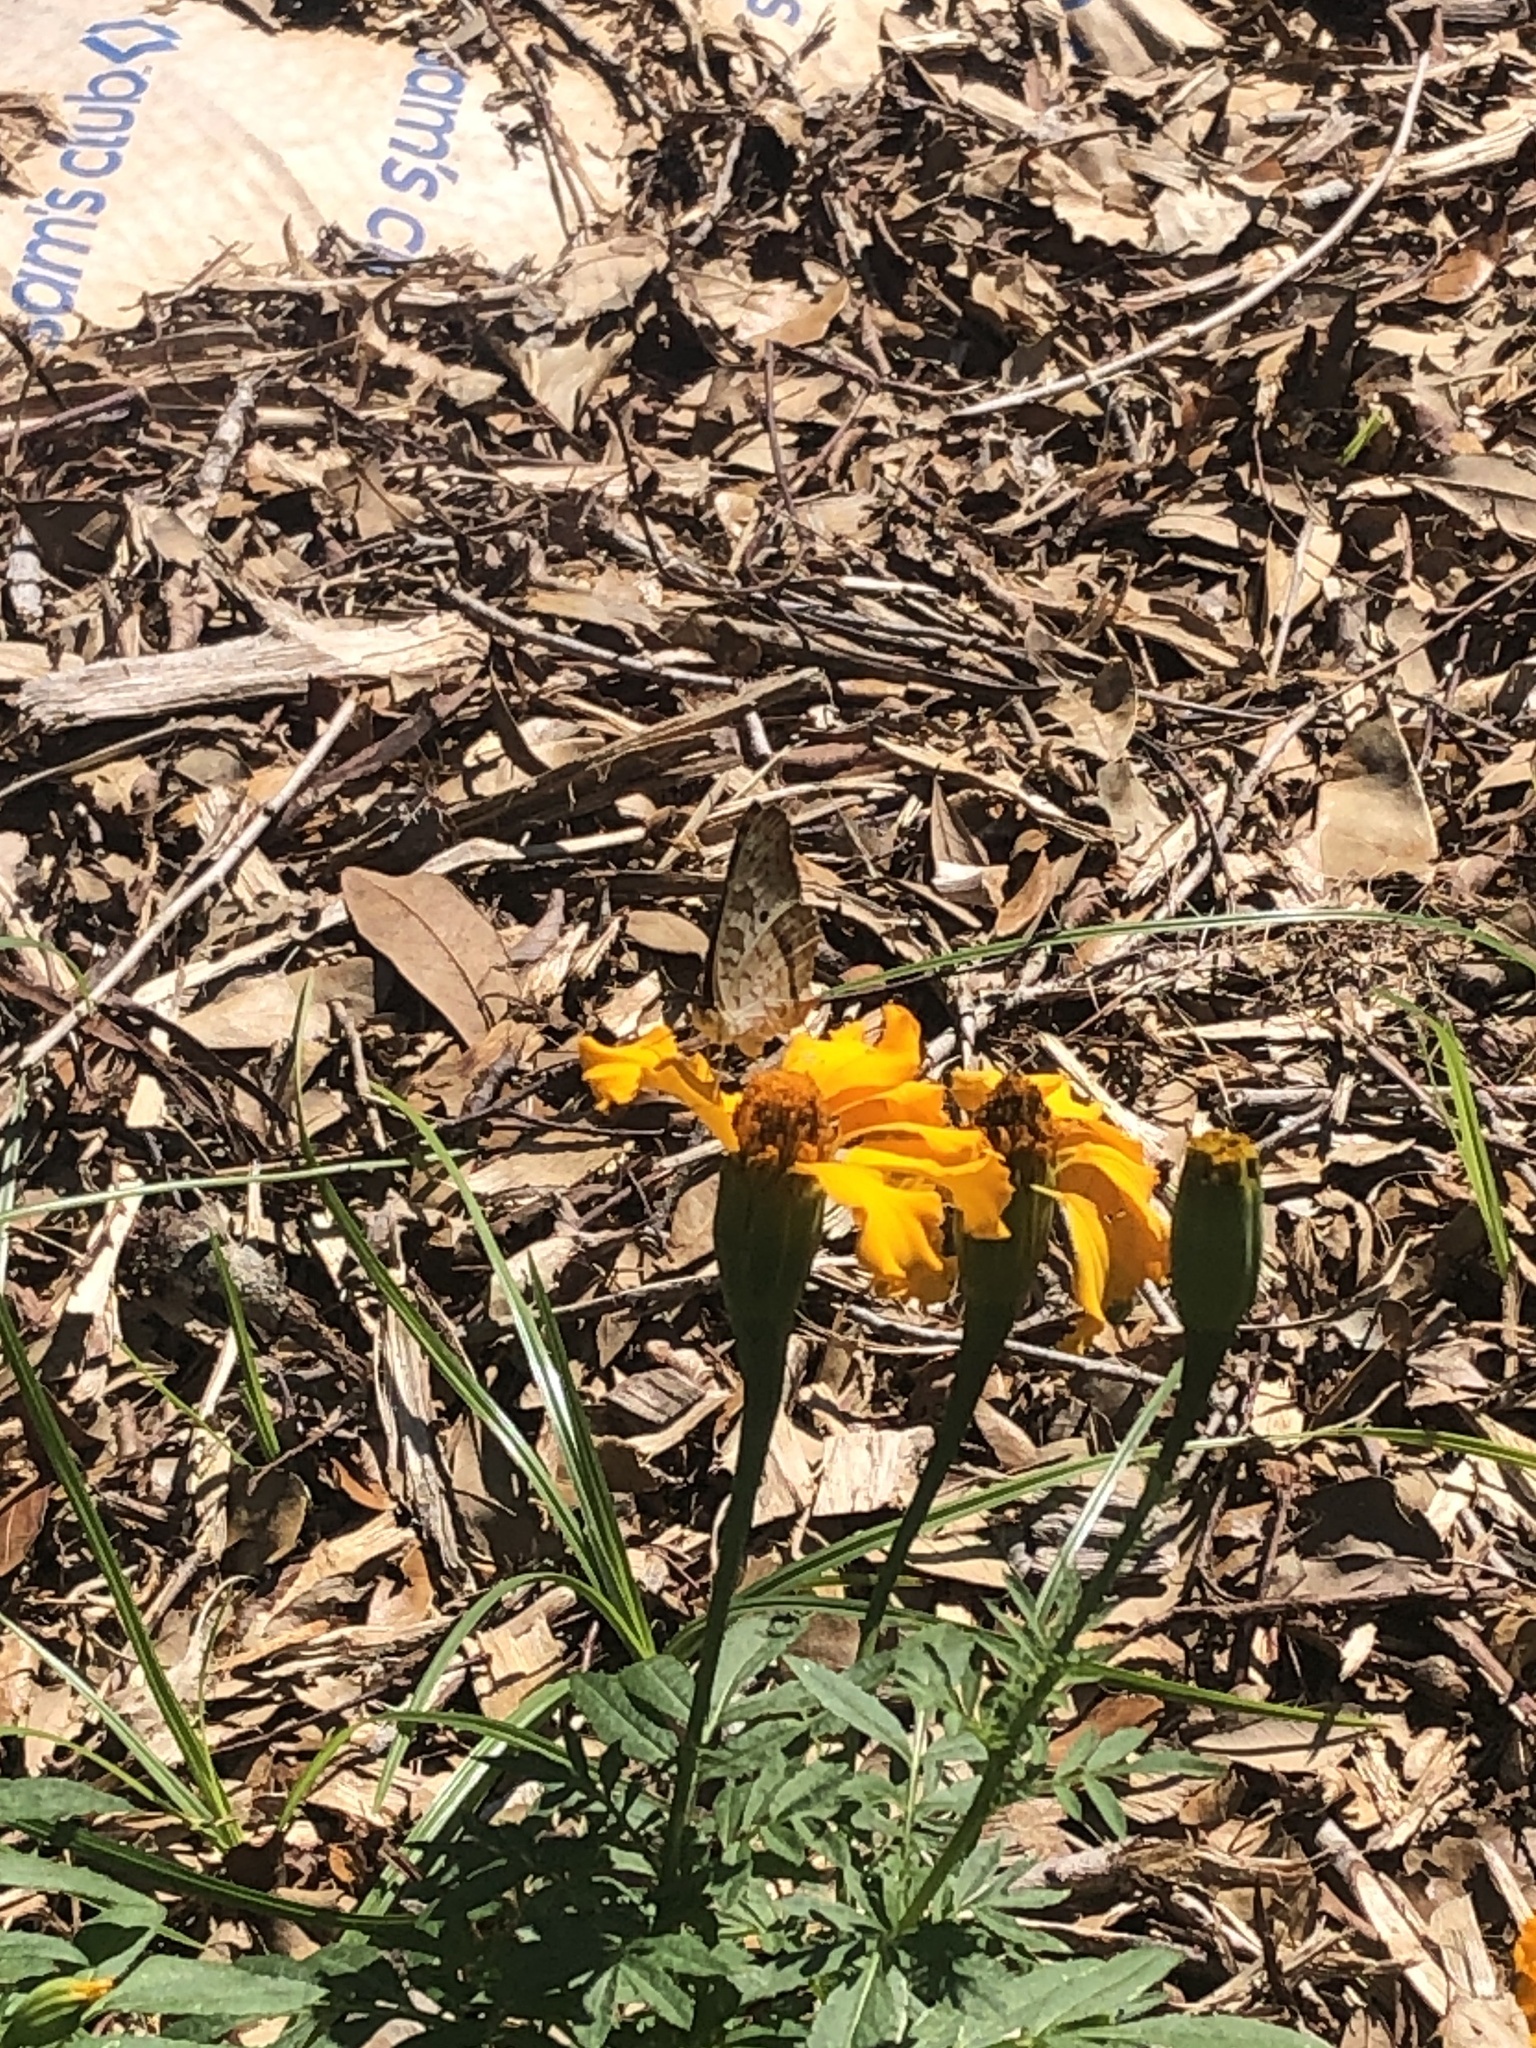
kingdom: Animalia
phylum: Arthropoda
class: Insecta
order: Lepidoptera
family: Nymphalidae
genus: Anartia
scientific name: Anartia jatrophae
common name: White peacock
